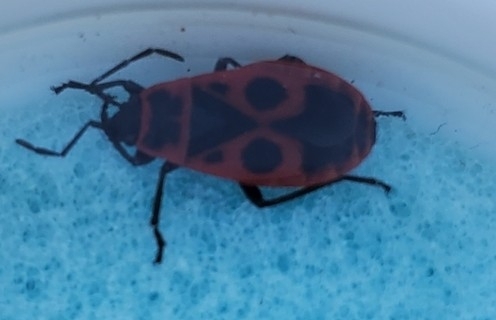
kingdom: Animalia
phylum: Arthropoda
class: Insecta
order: Hemiptera
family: Pyrrhocoridae
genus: Pyrrhocoris
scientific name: Pyrrhocoris apterus
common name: Firebug
